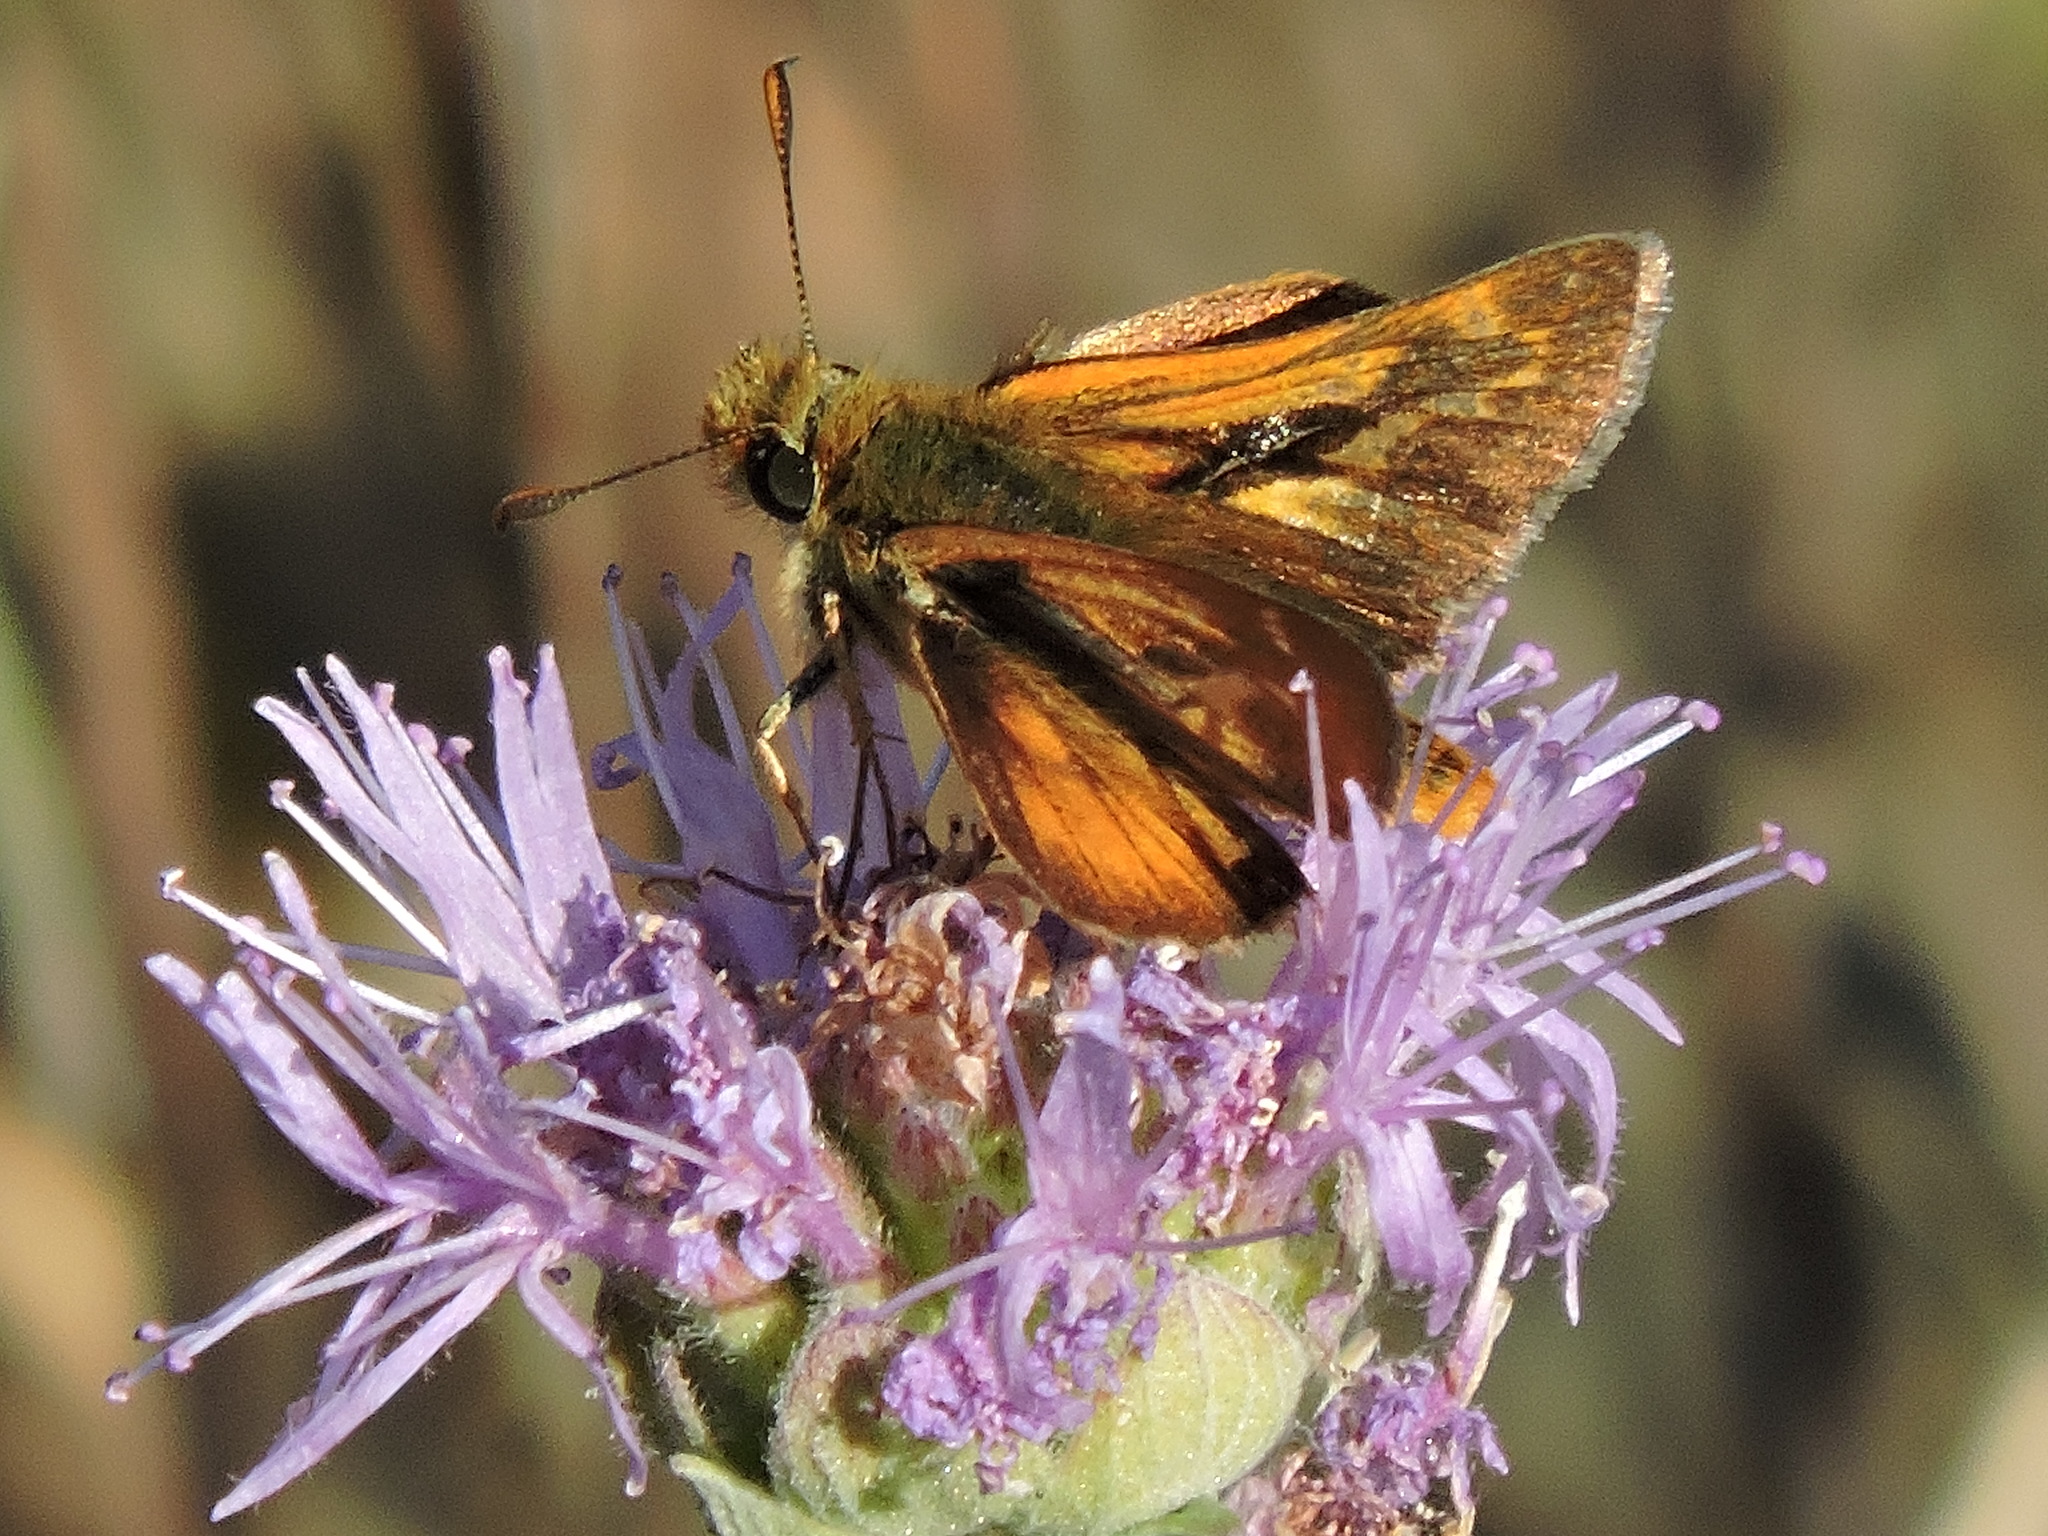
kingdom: Animalia
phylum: Arthropoda
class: Insecta
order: Lepidoptera
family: Hesperiidae
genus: Ochlodes
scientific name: Ochlodes agricola
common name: Rural skipper
